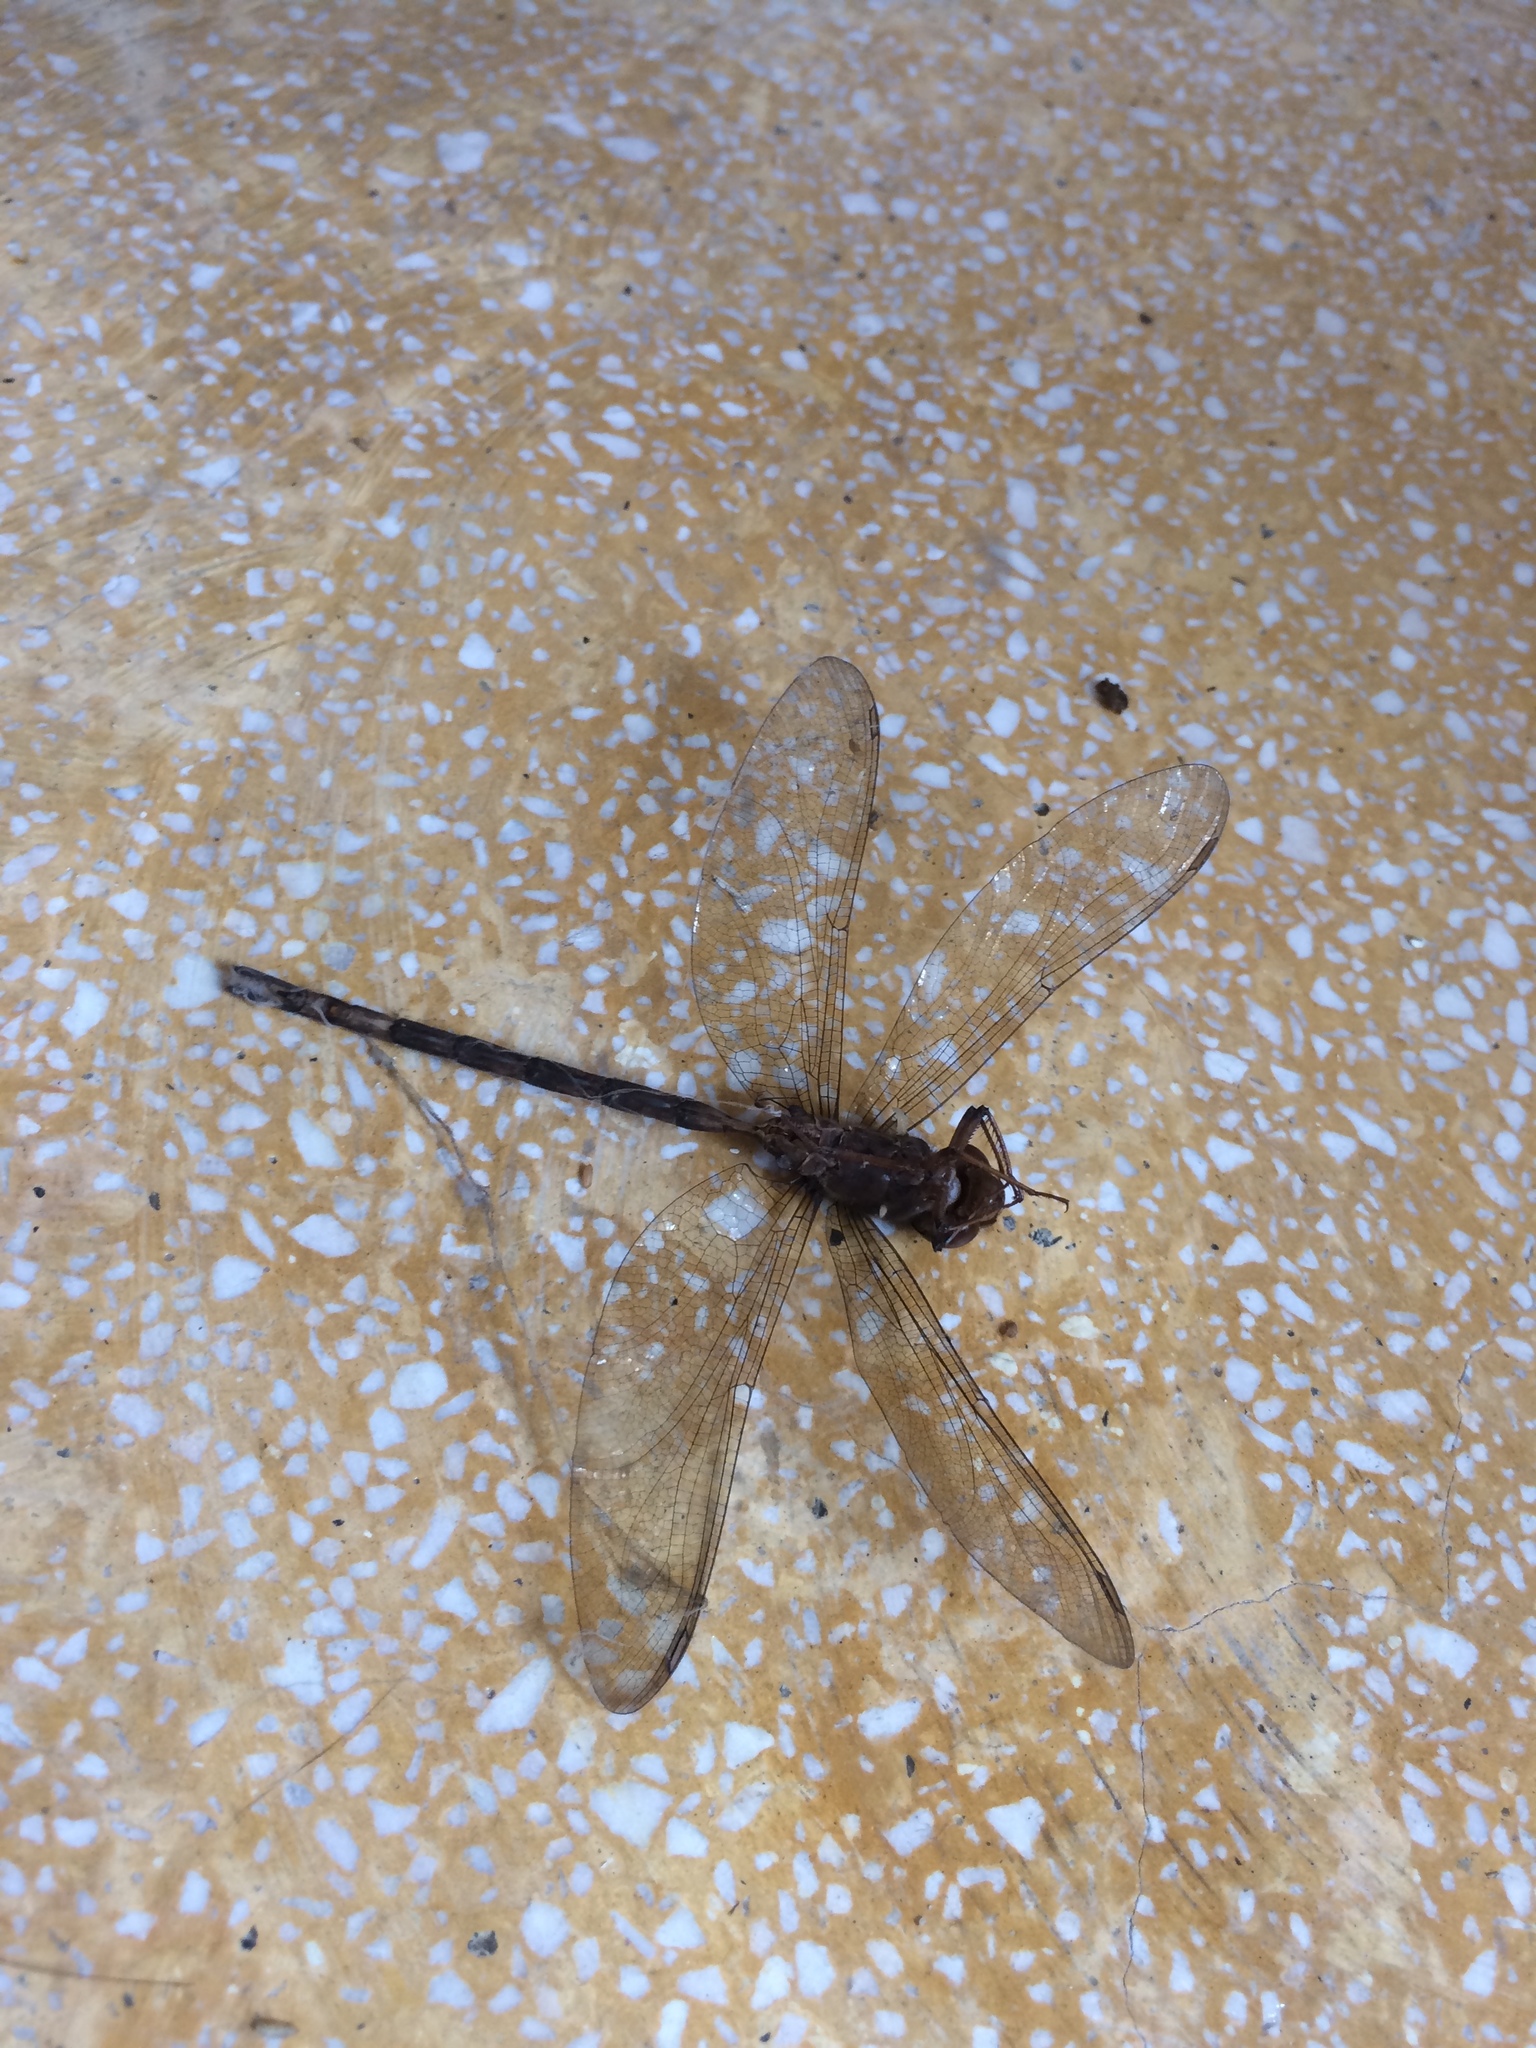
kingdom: Animalia
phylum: Arthropoda
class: Insecta
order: Odonata
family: Aeshnidae
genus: Gynacantha
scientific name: Gynacantha subinterrupta
